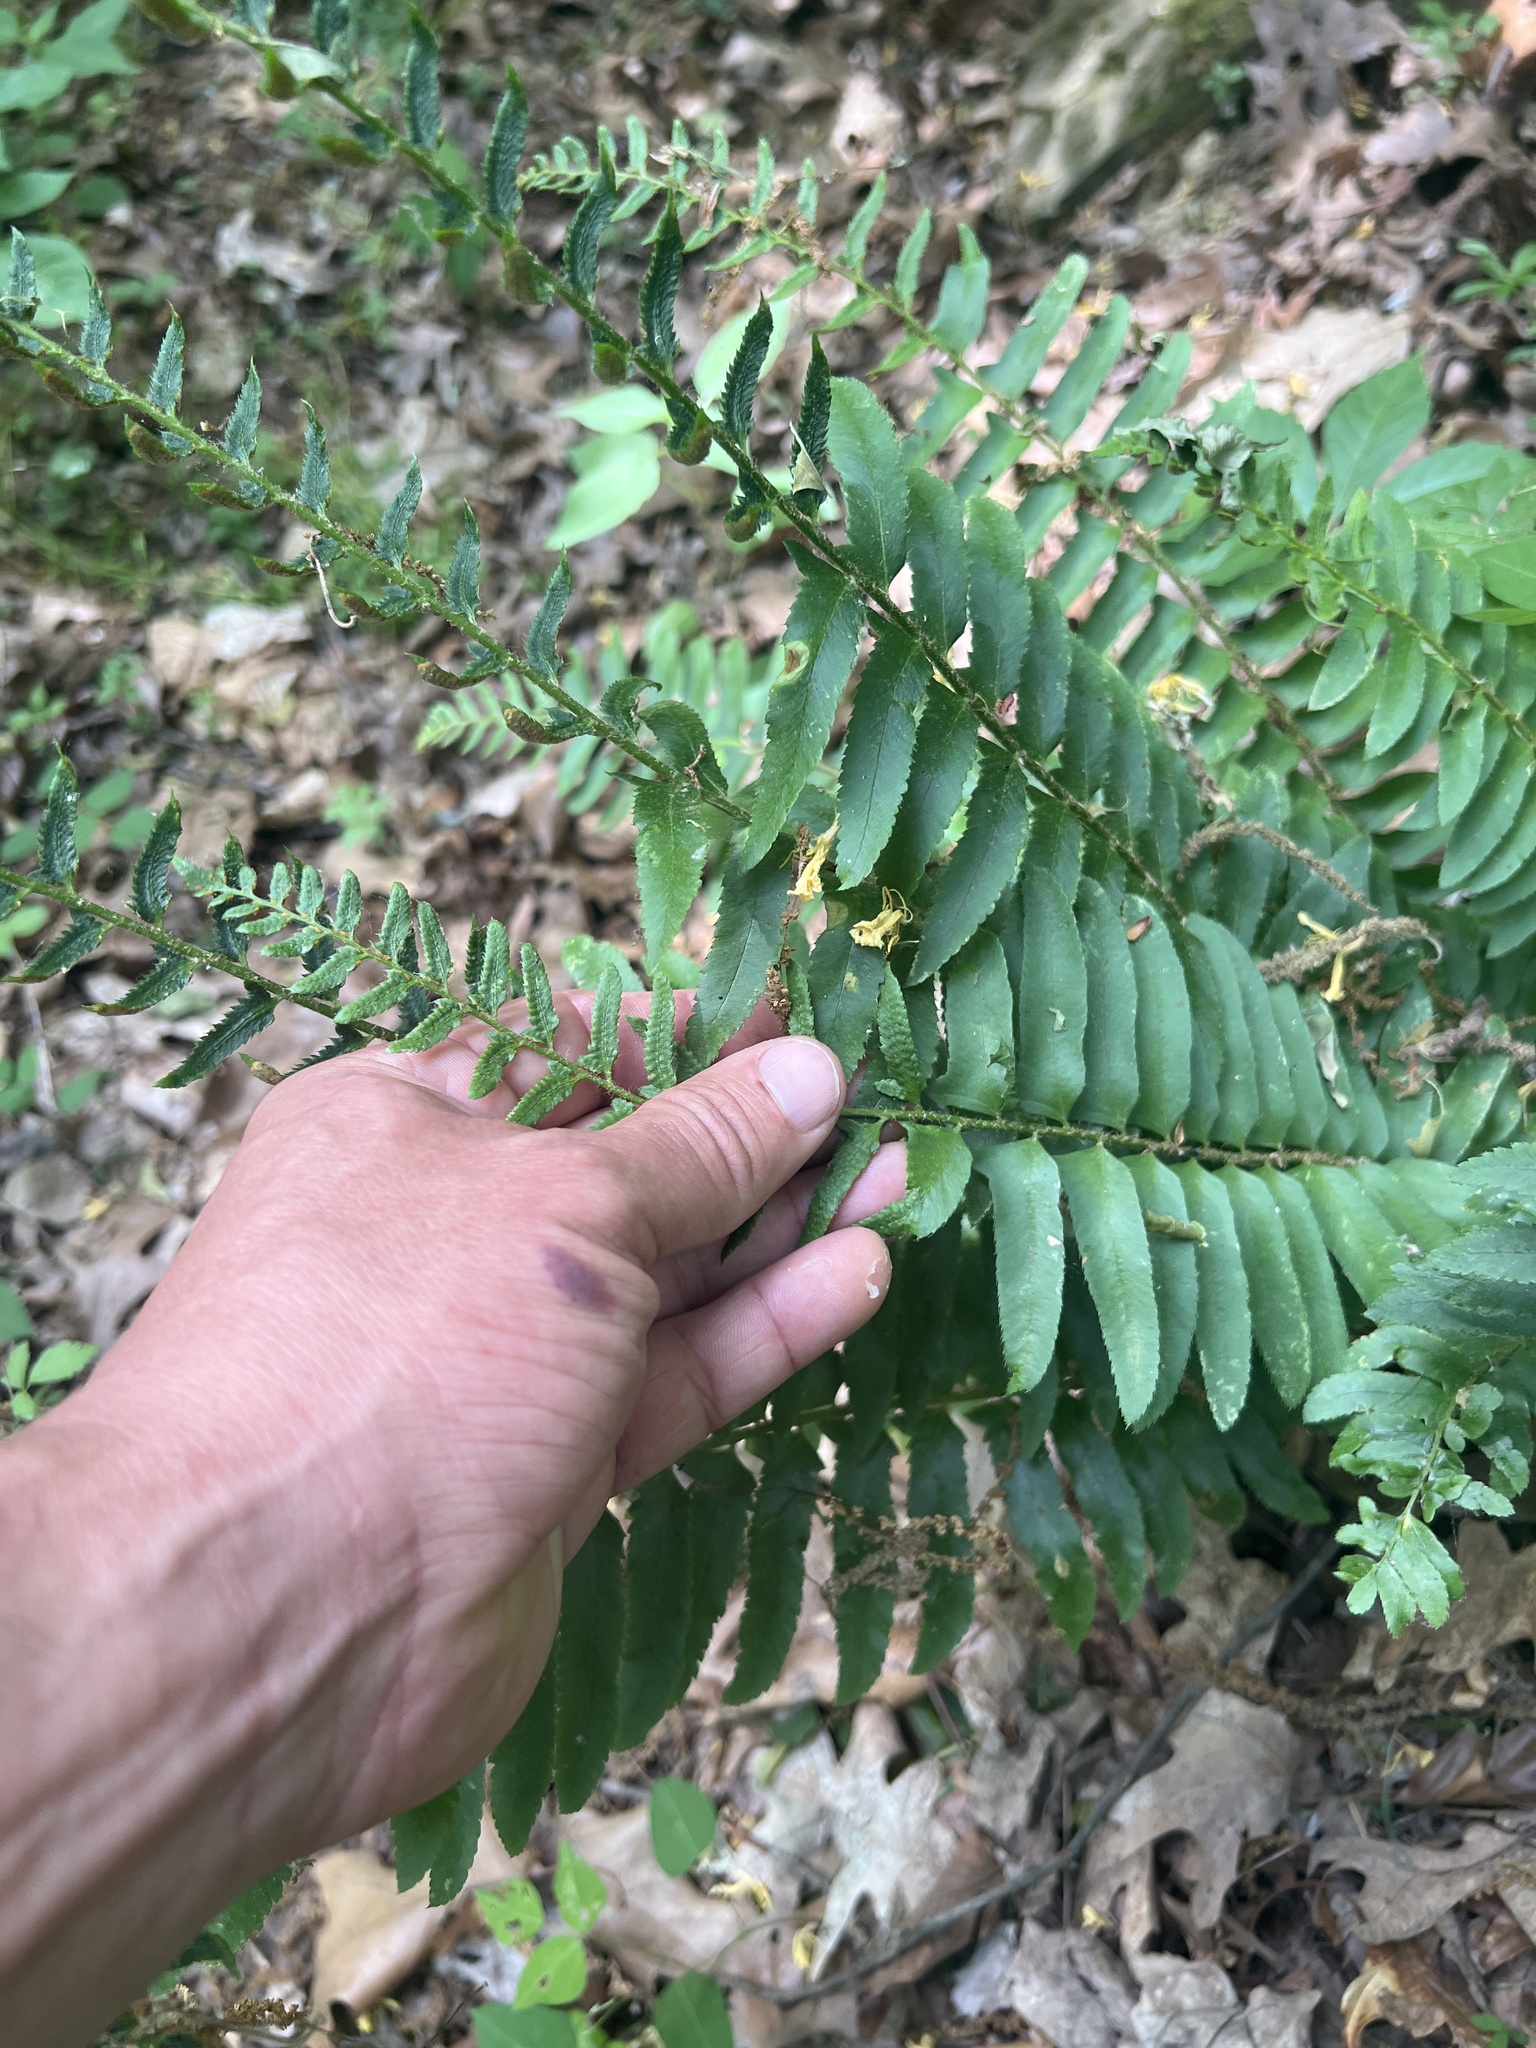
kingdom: Plantae
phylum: Tracheophyta
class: Polypodiopsida
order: Polypodiales
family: Dryopteridaceae
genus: Polystichum
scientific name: Polystichum acrostichoides
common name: Christmas fern
